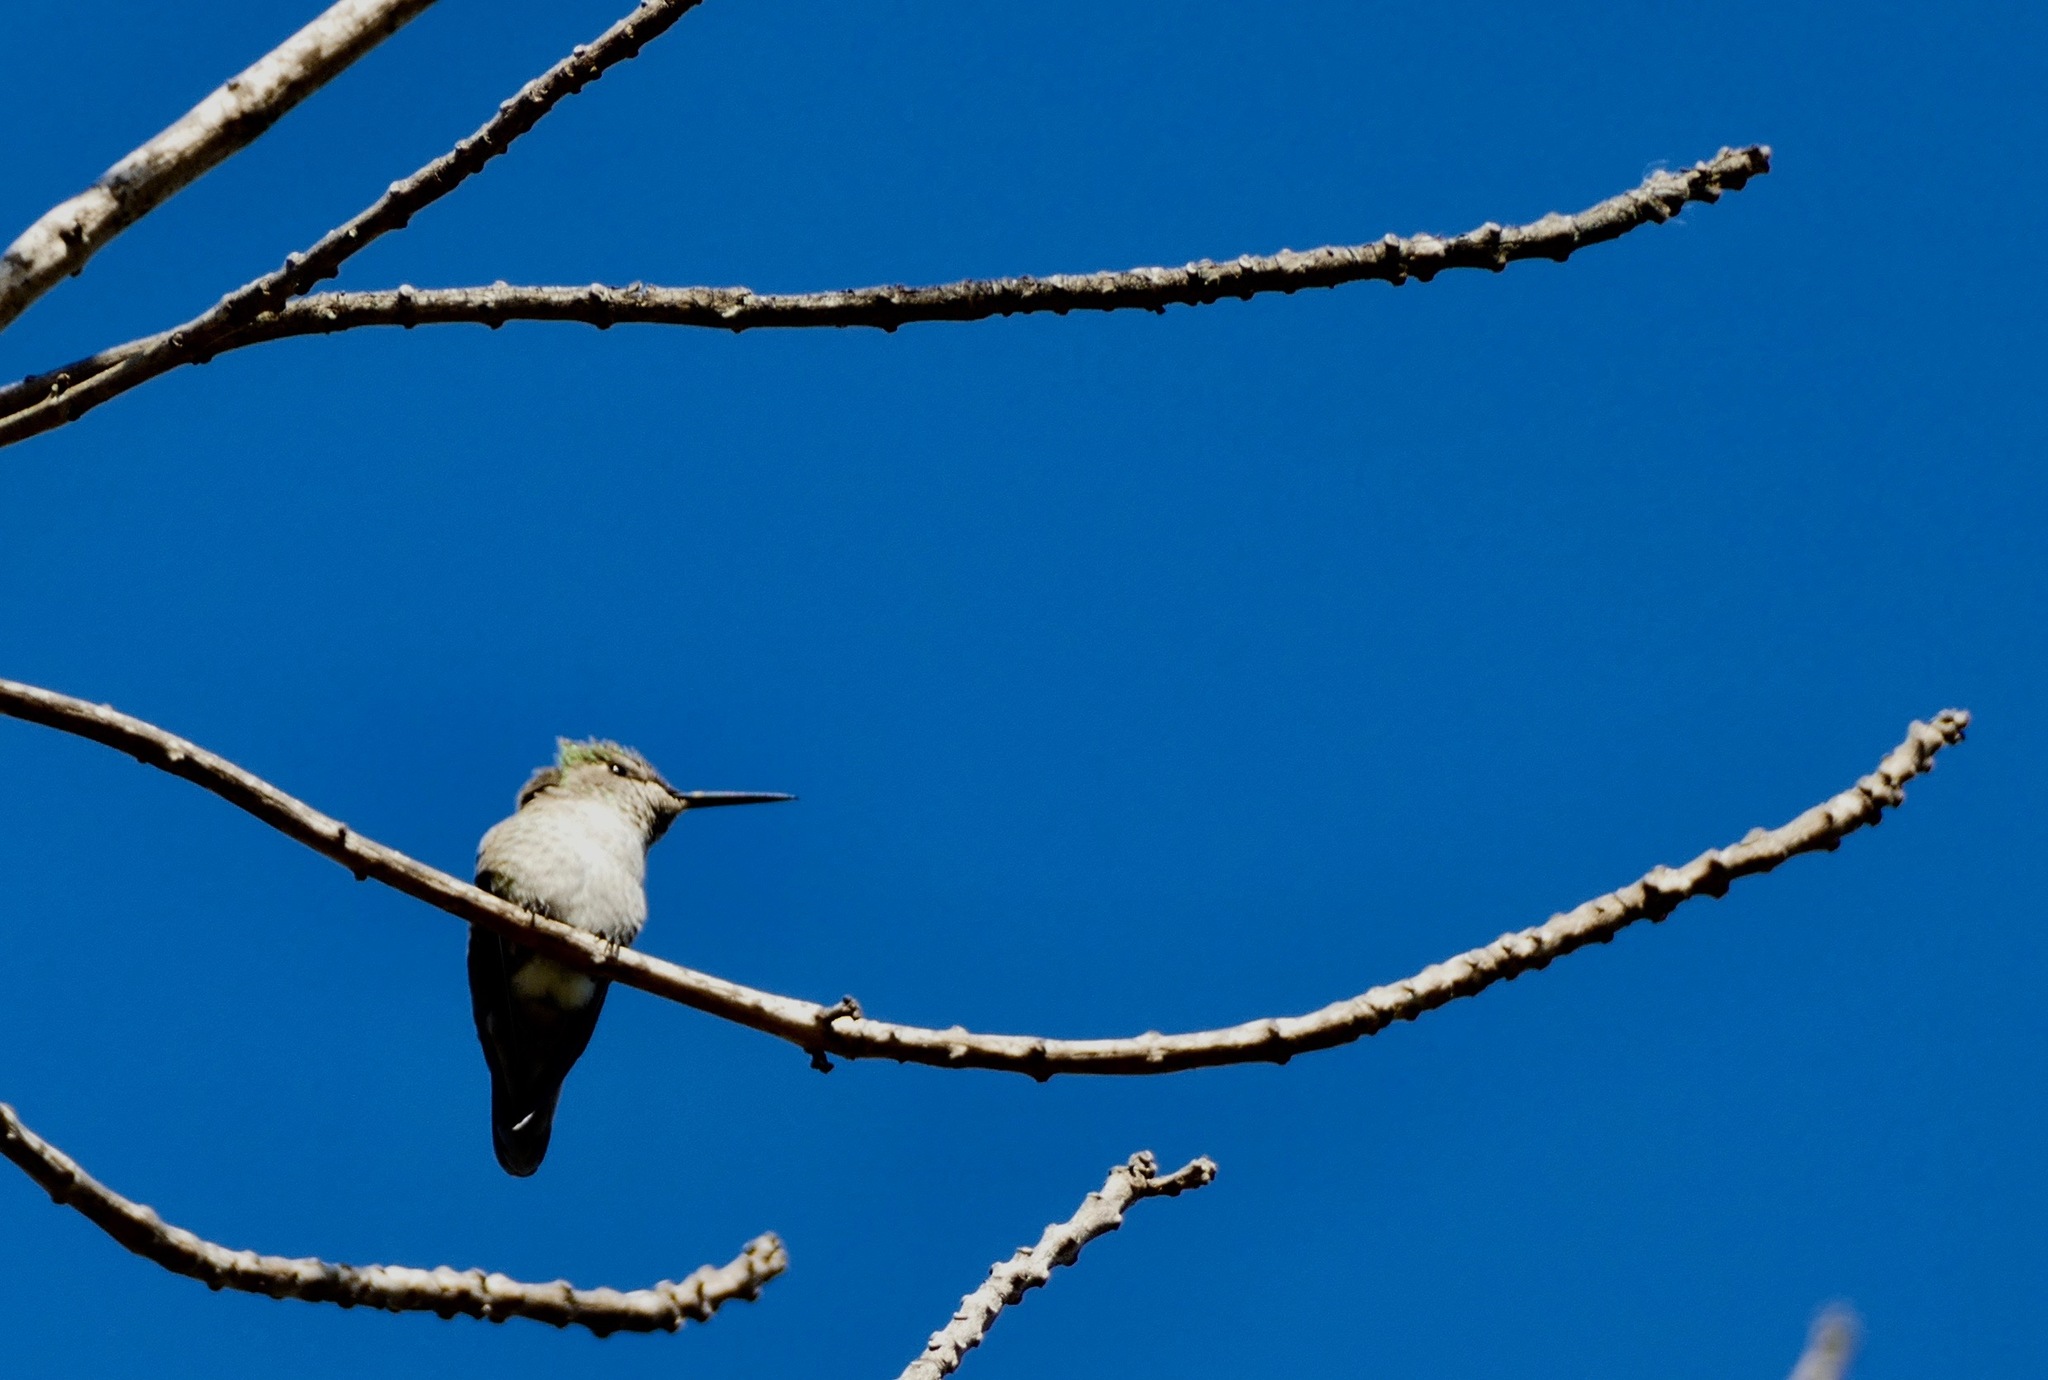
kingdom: Animalia
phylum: Chordata
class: Aves
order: Apodiformes
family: Trochilidae
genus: Calypte
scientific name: Calypte anna
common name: Anna's hummingbird
